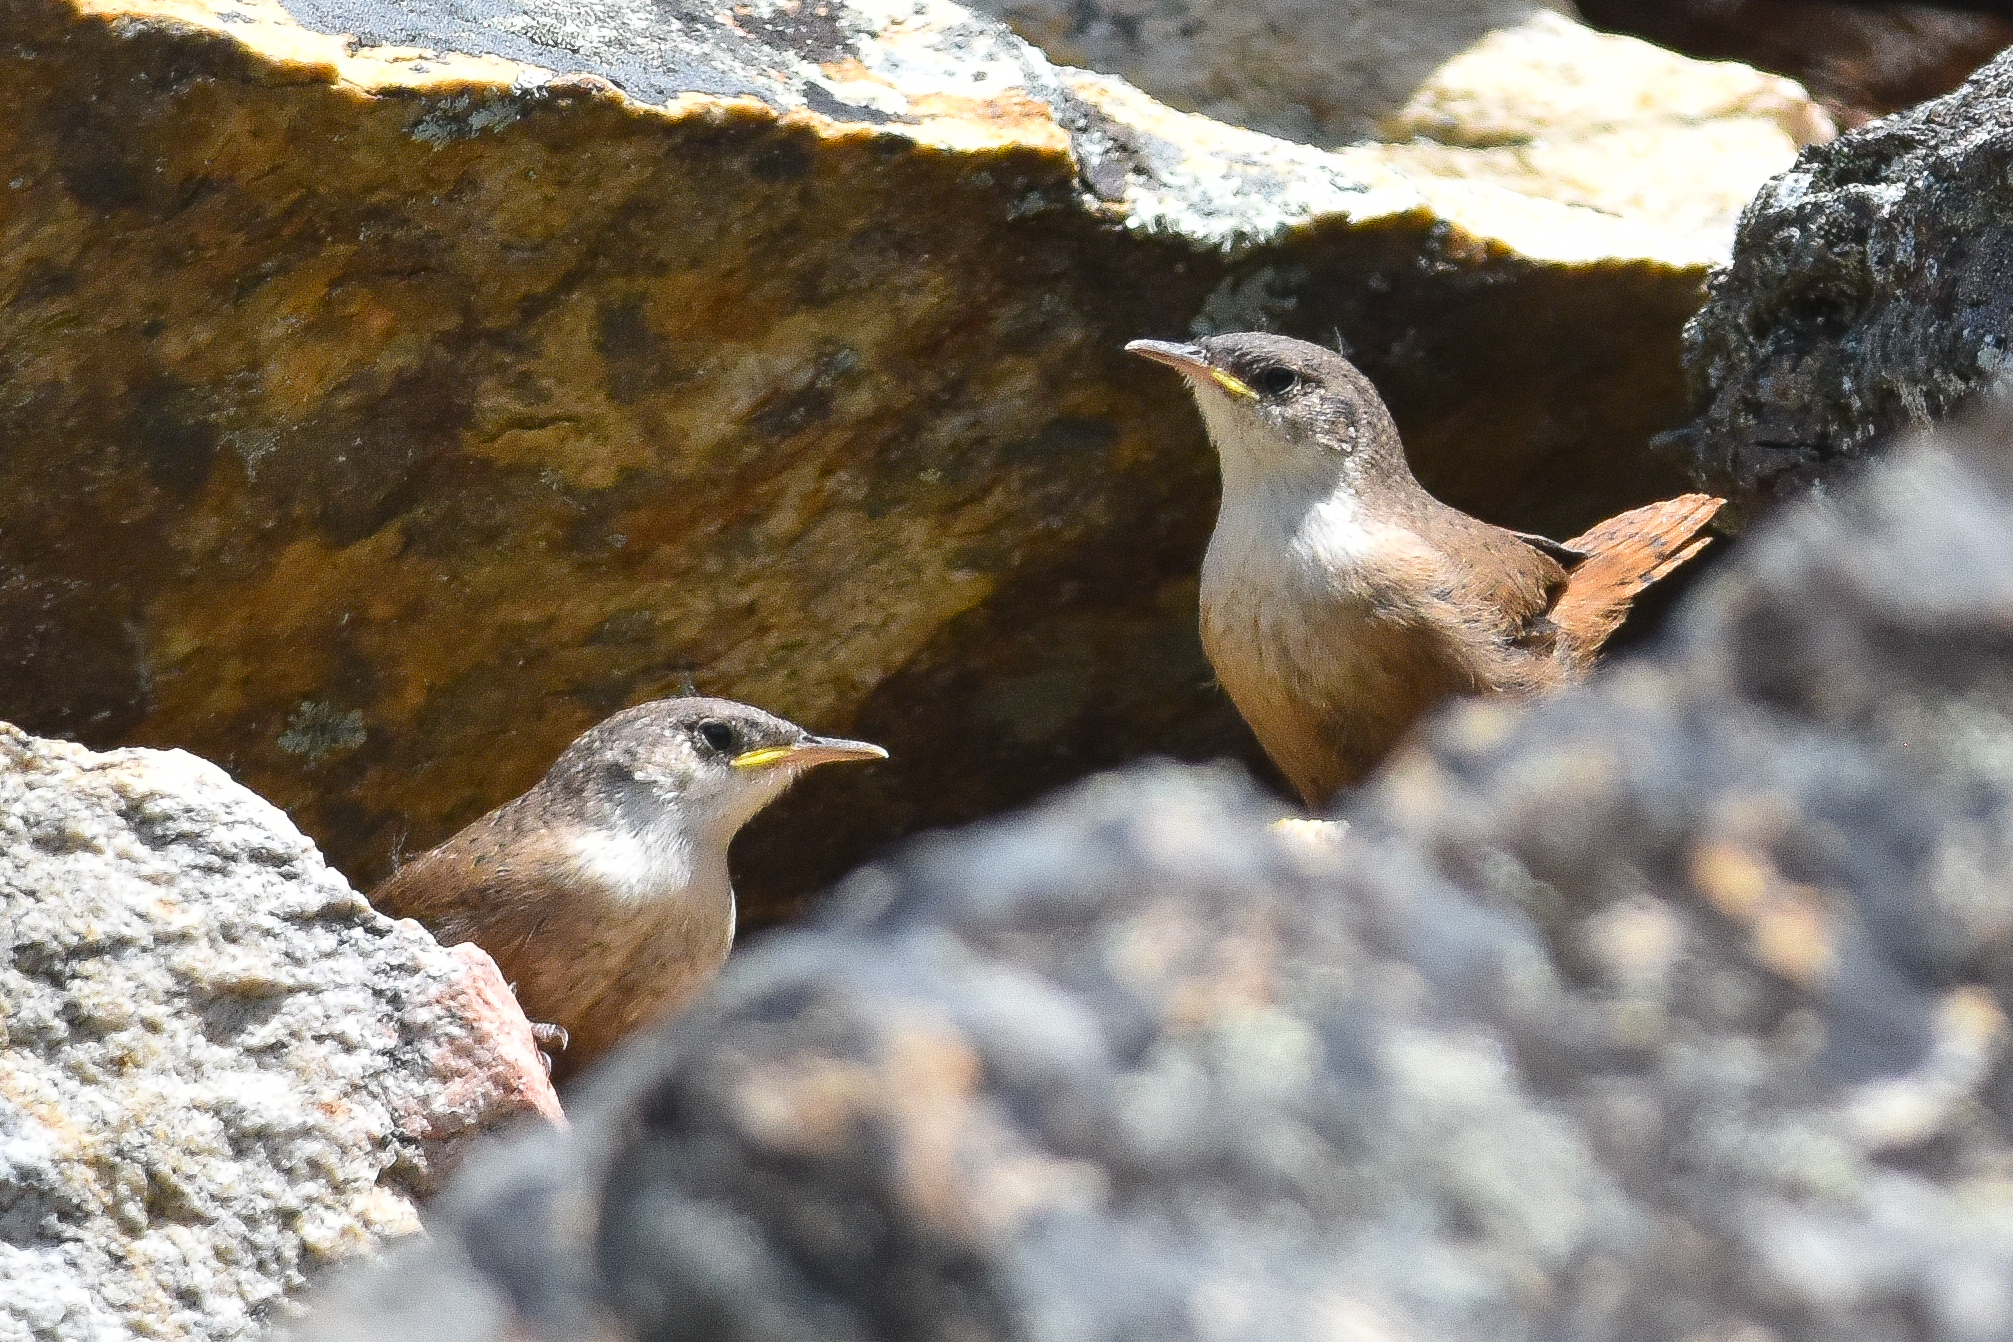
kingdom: Animalia
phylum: Chordata
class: Aves
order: Passeriformes
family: Troglodytidae
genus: Catherpes
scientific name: Catherpes mexicanus
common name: Canyon wren
